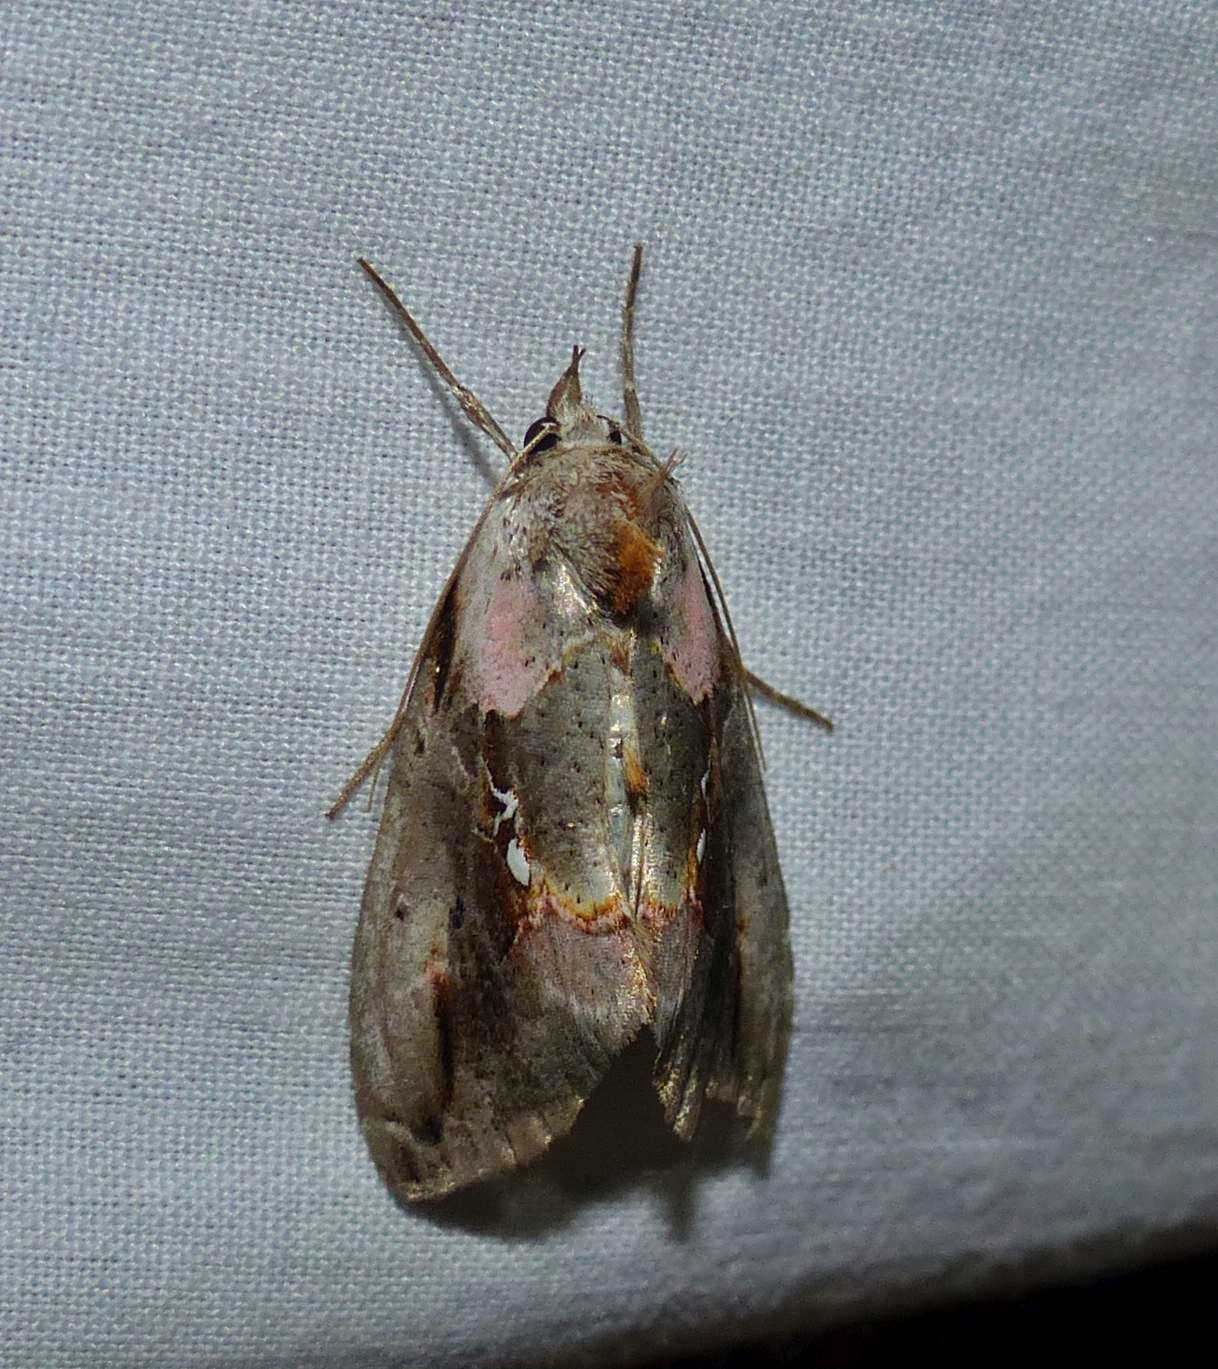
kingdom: Animalia
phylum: Arthropoda
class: Insecta
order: Lepidoptera
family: Noctuidae
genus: Eosphoropteryx
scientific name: Eosphoropteryx thyatyroides
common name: Pinkpatched looper moth
